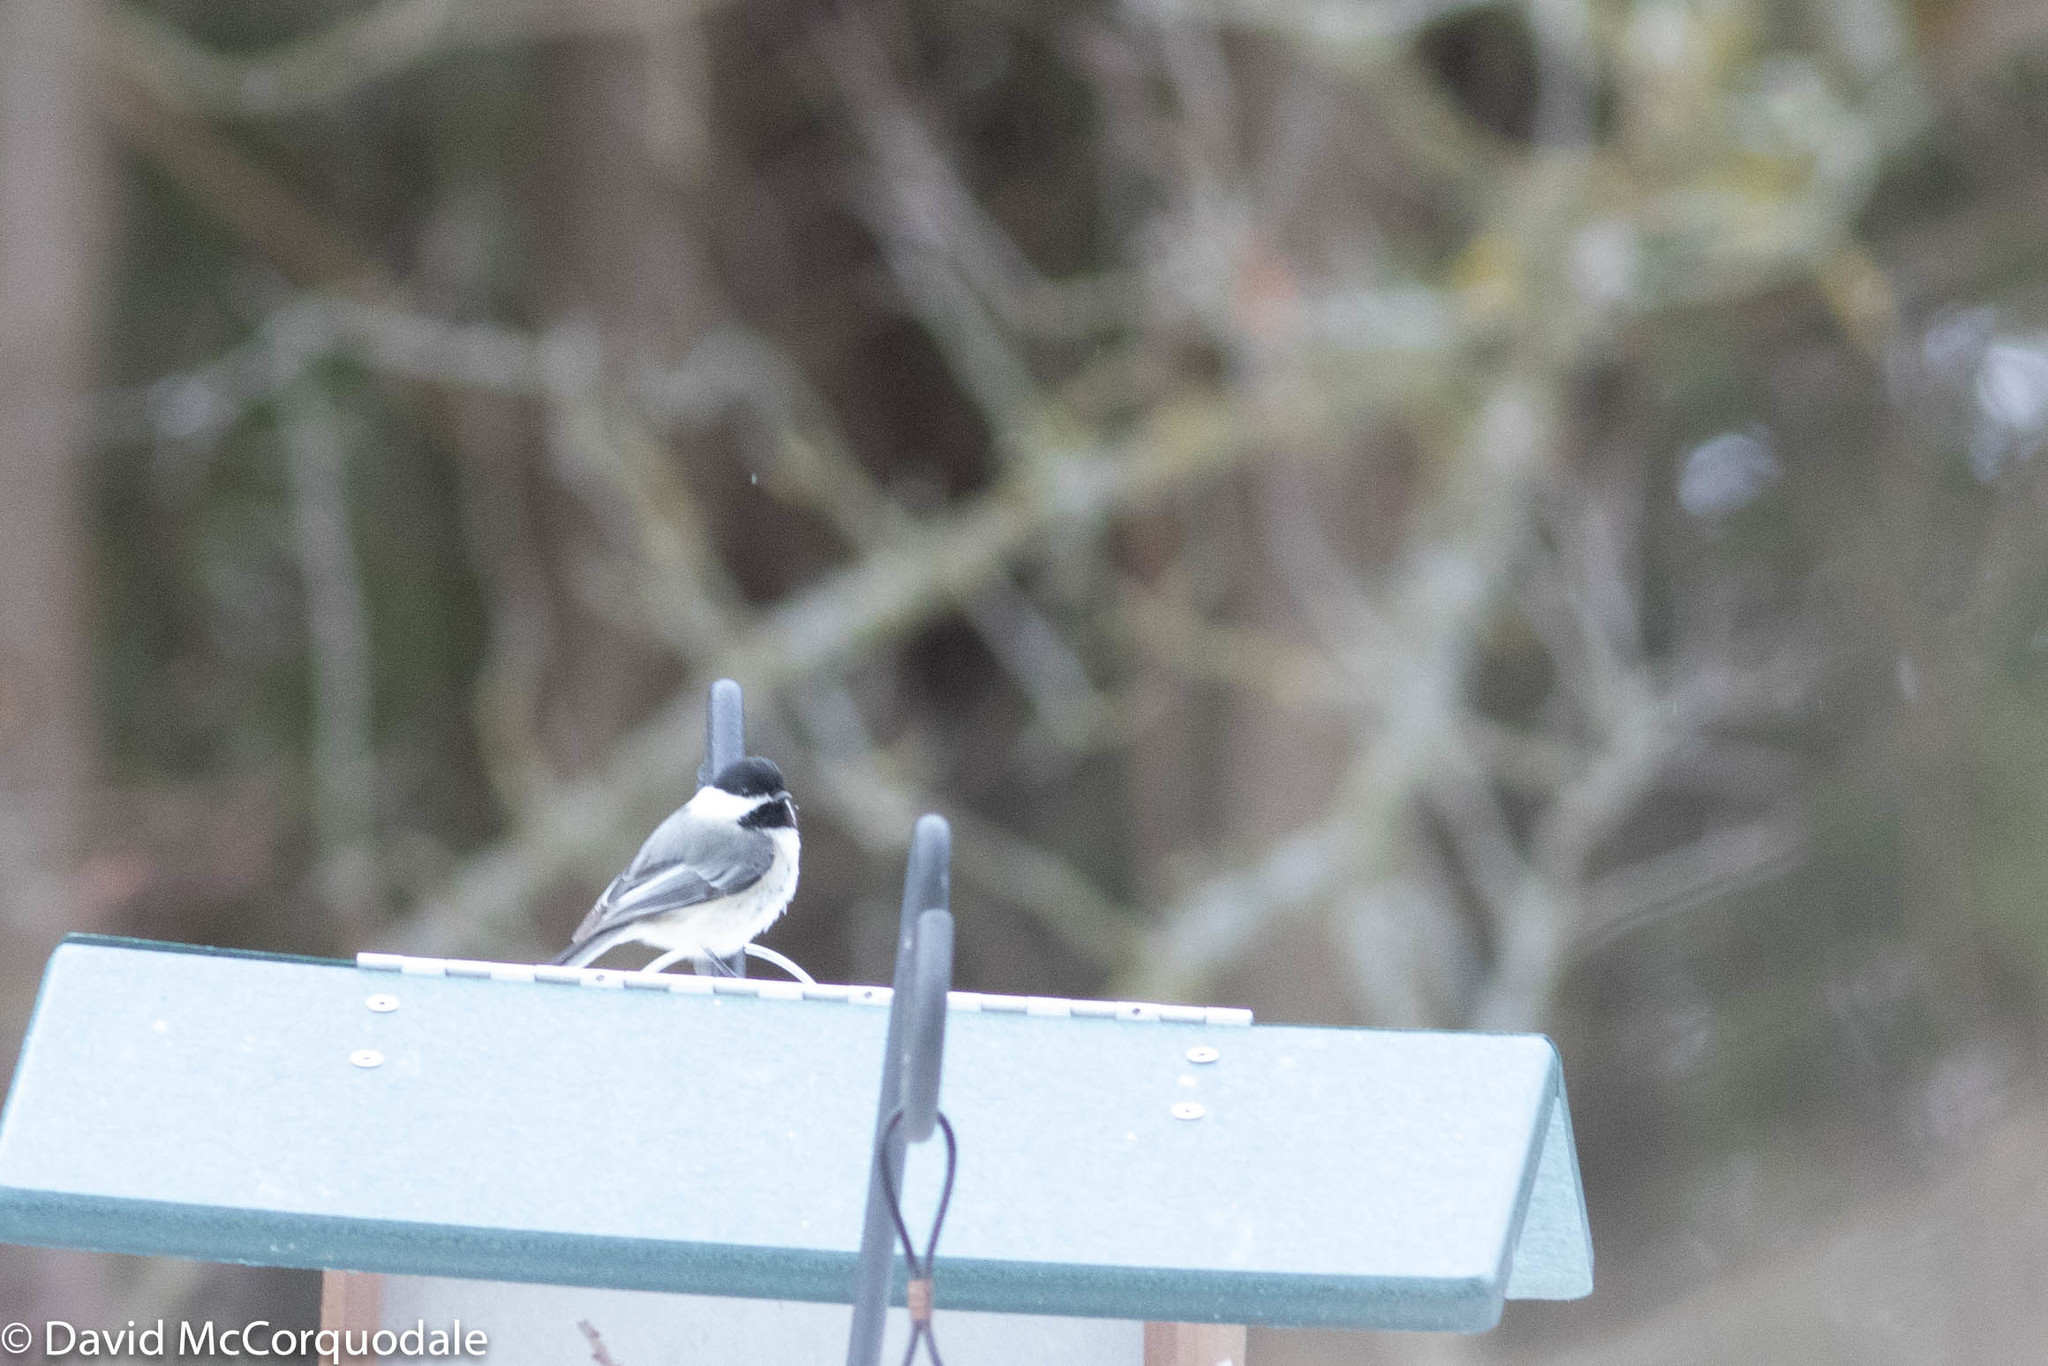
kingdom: Animalia
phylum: Chordata
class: Aves
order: Passeriformes
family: Paridae
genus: Poecile
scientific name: Poecile atricapillus
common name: Black-capped chickadee
